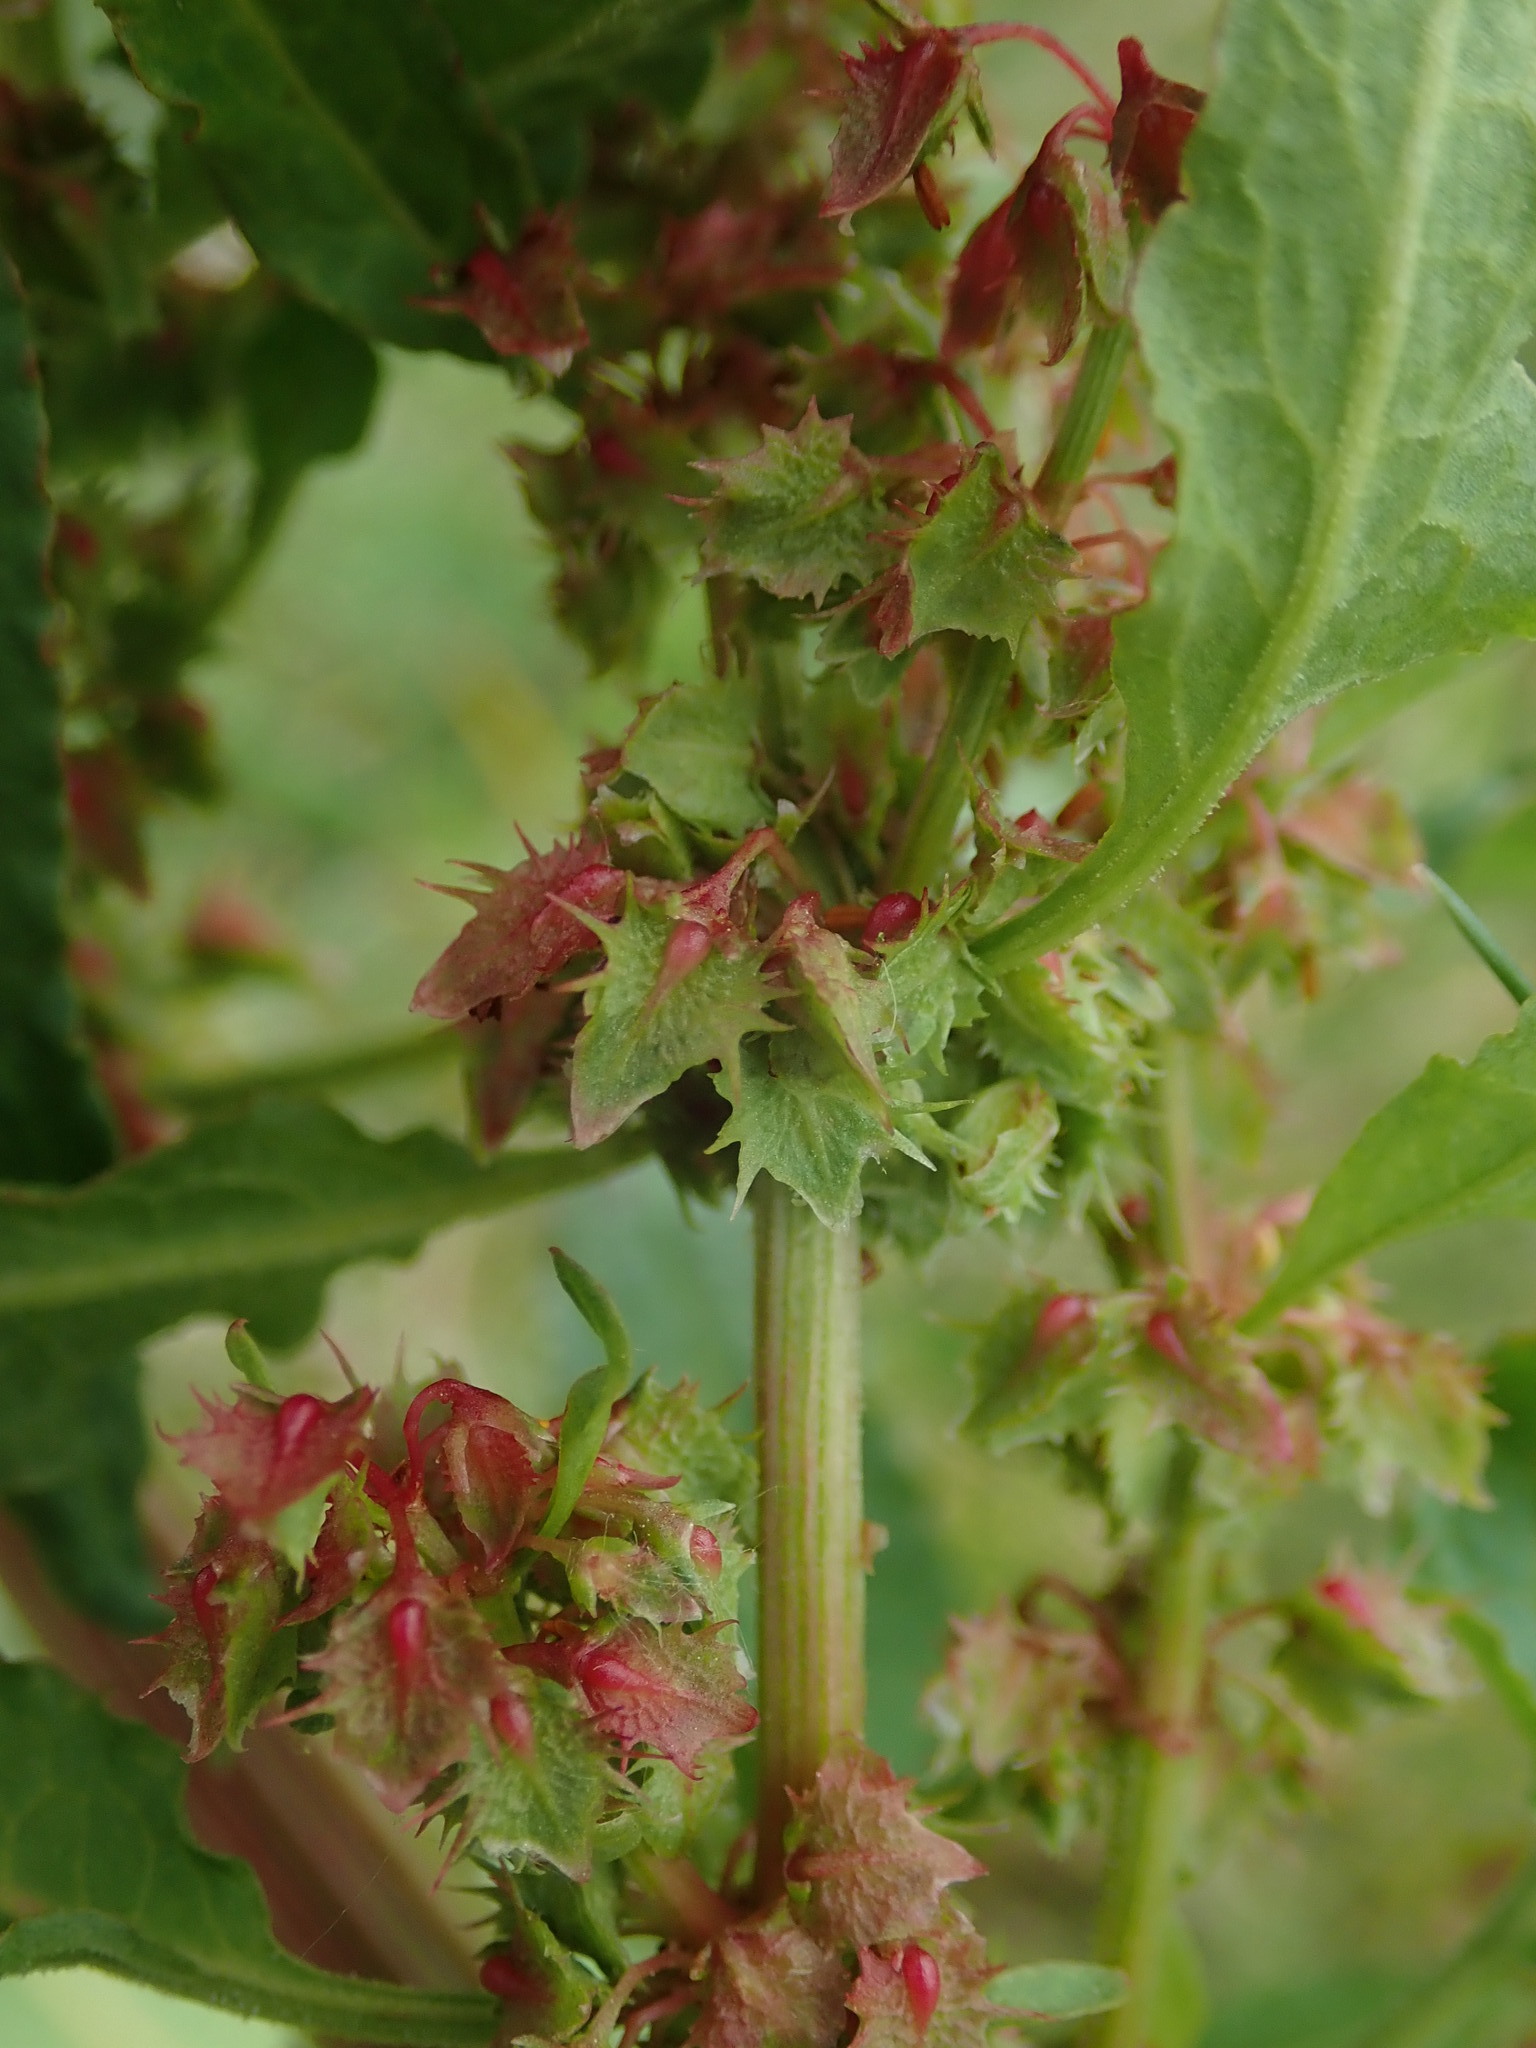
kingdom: Plantae
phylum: Tracheophyta
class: Magnoliopsida
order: Caryophyllales
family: Polygonaceae
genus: Rumex
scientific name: Rumex obtusifolius
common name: Bitter dock
